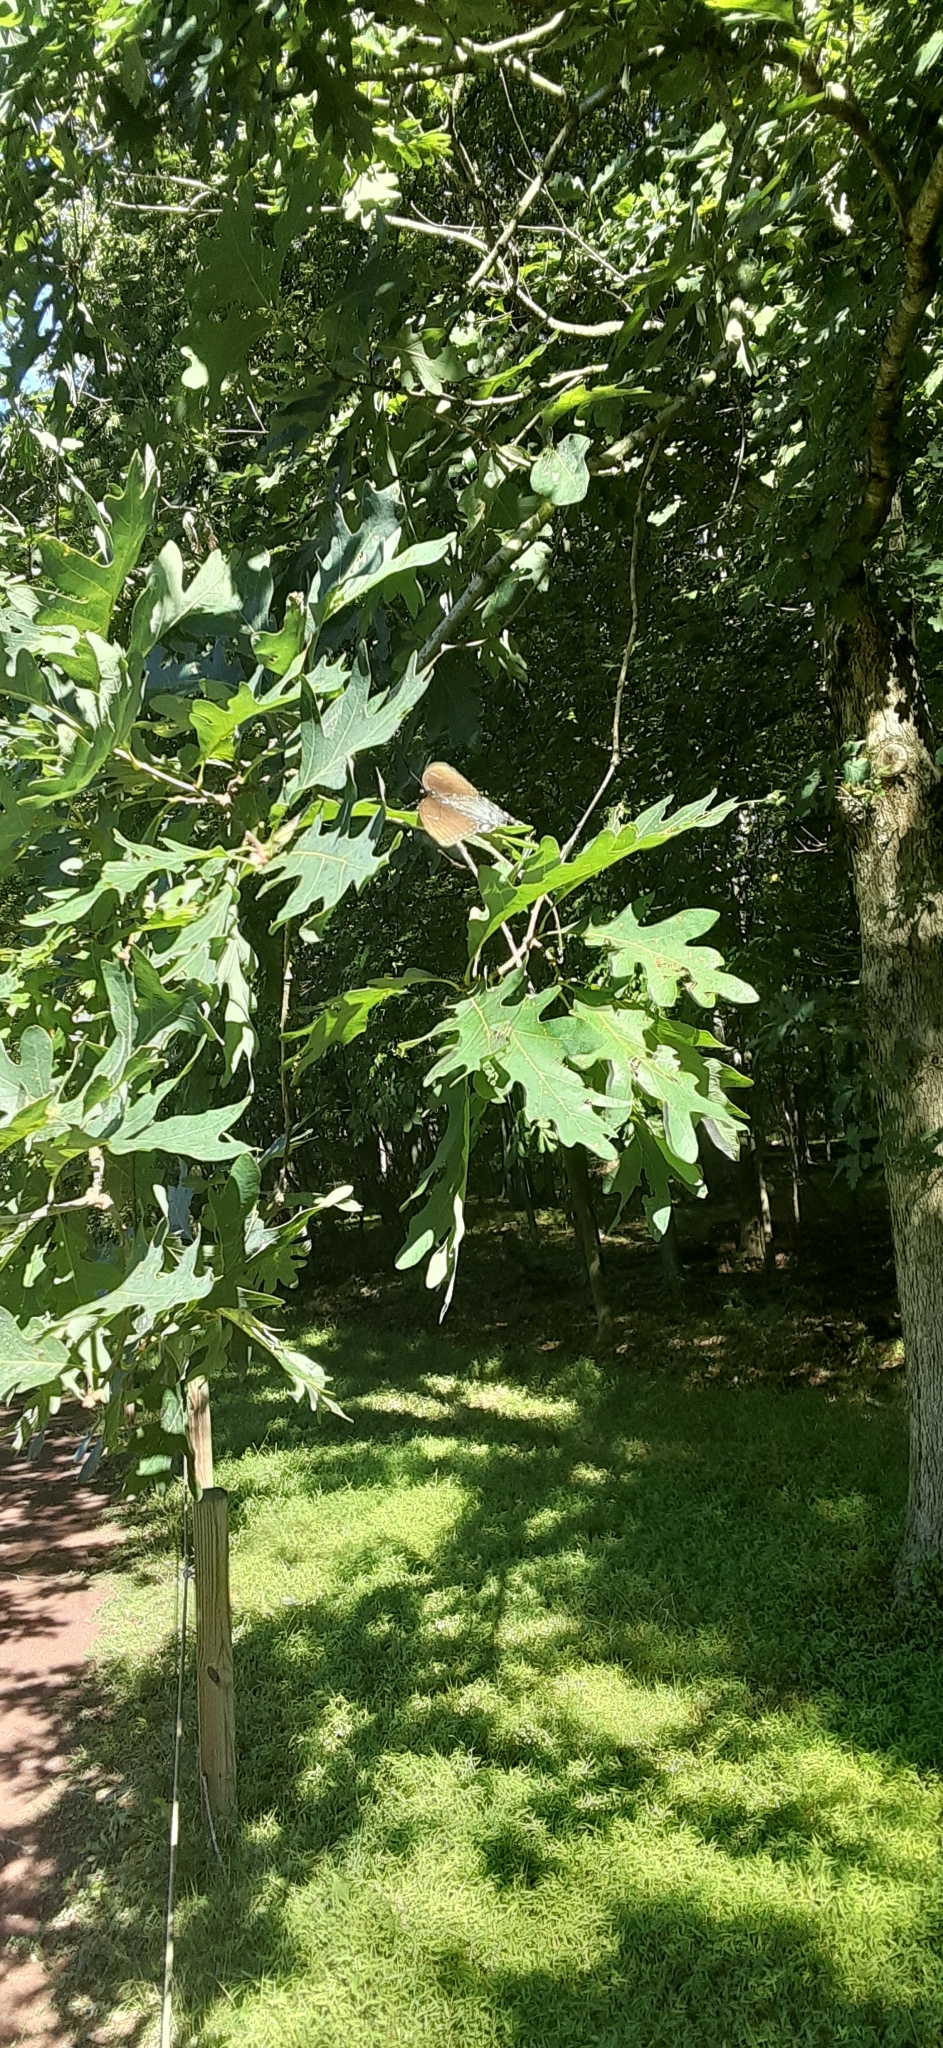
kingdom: Animalia
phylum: Arthropoda
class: Insecta
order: Lepidoptera
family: Papilionidae
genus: Papilio
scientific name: Papilio glaucus
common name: Tiger swallowtail
